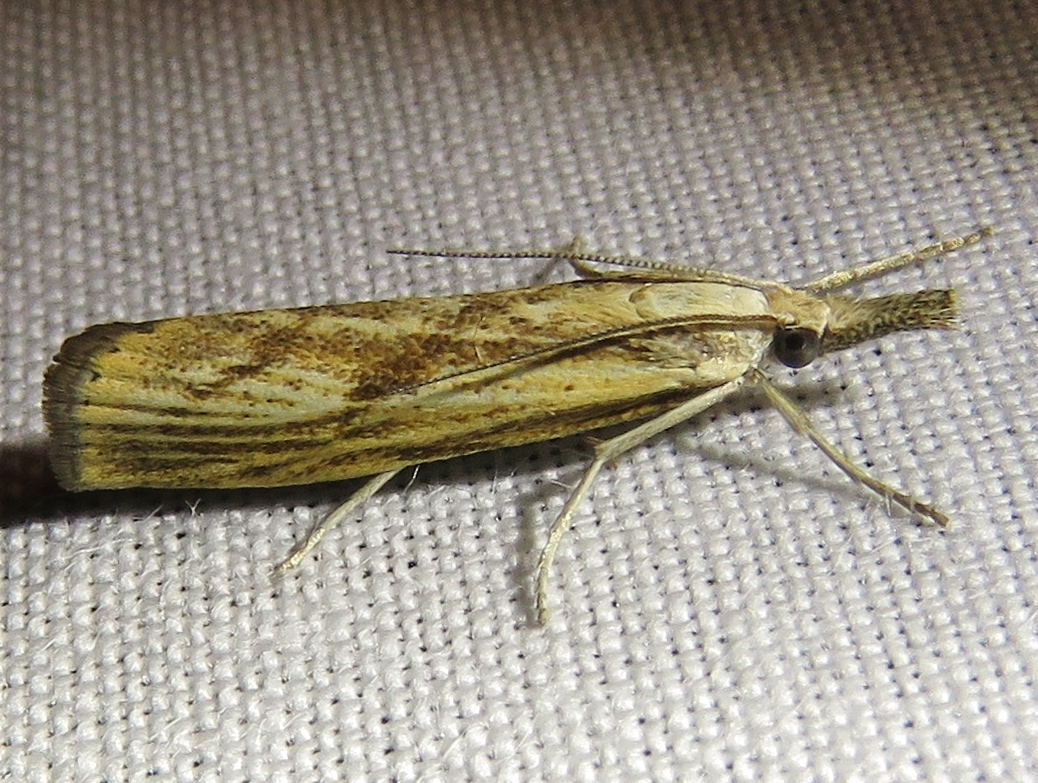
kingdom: Animalia
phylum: Arthropoda
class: Insecta
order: Lepidoptera
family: Crambidae
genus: Agriphila
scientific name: Agriphila inquinatella
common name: Barred grass-veneer
